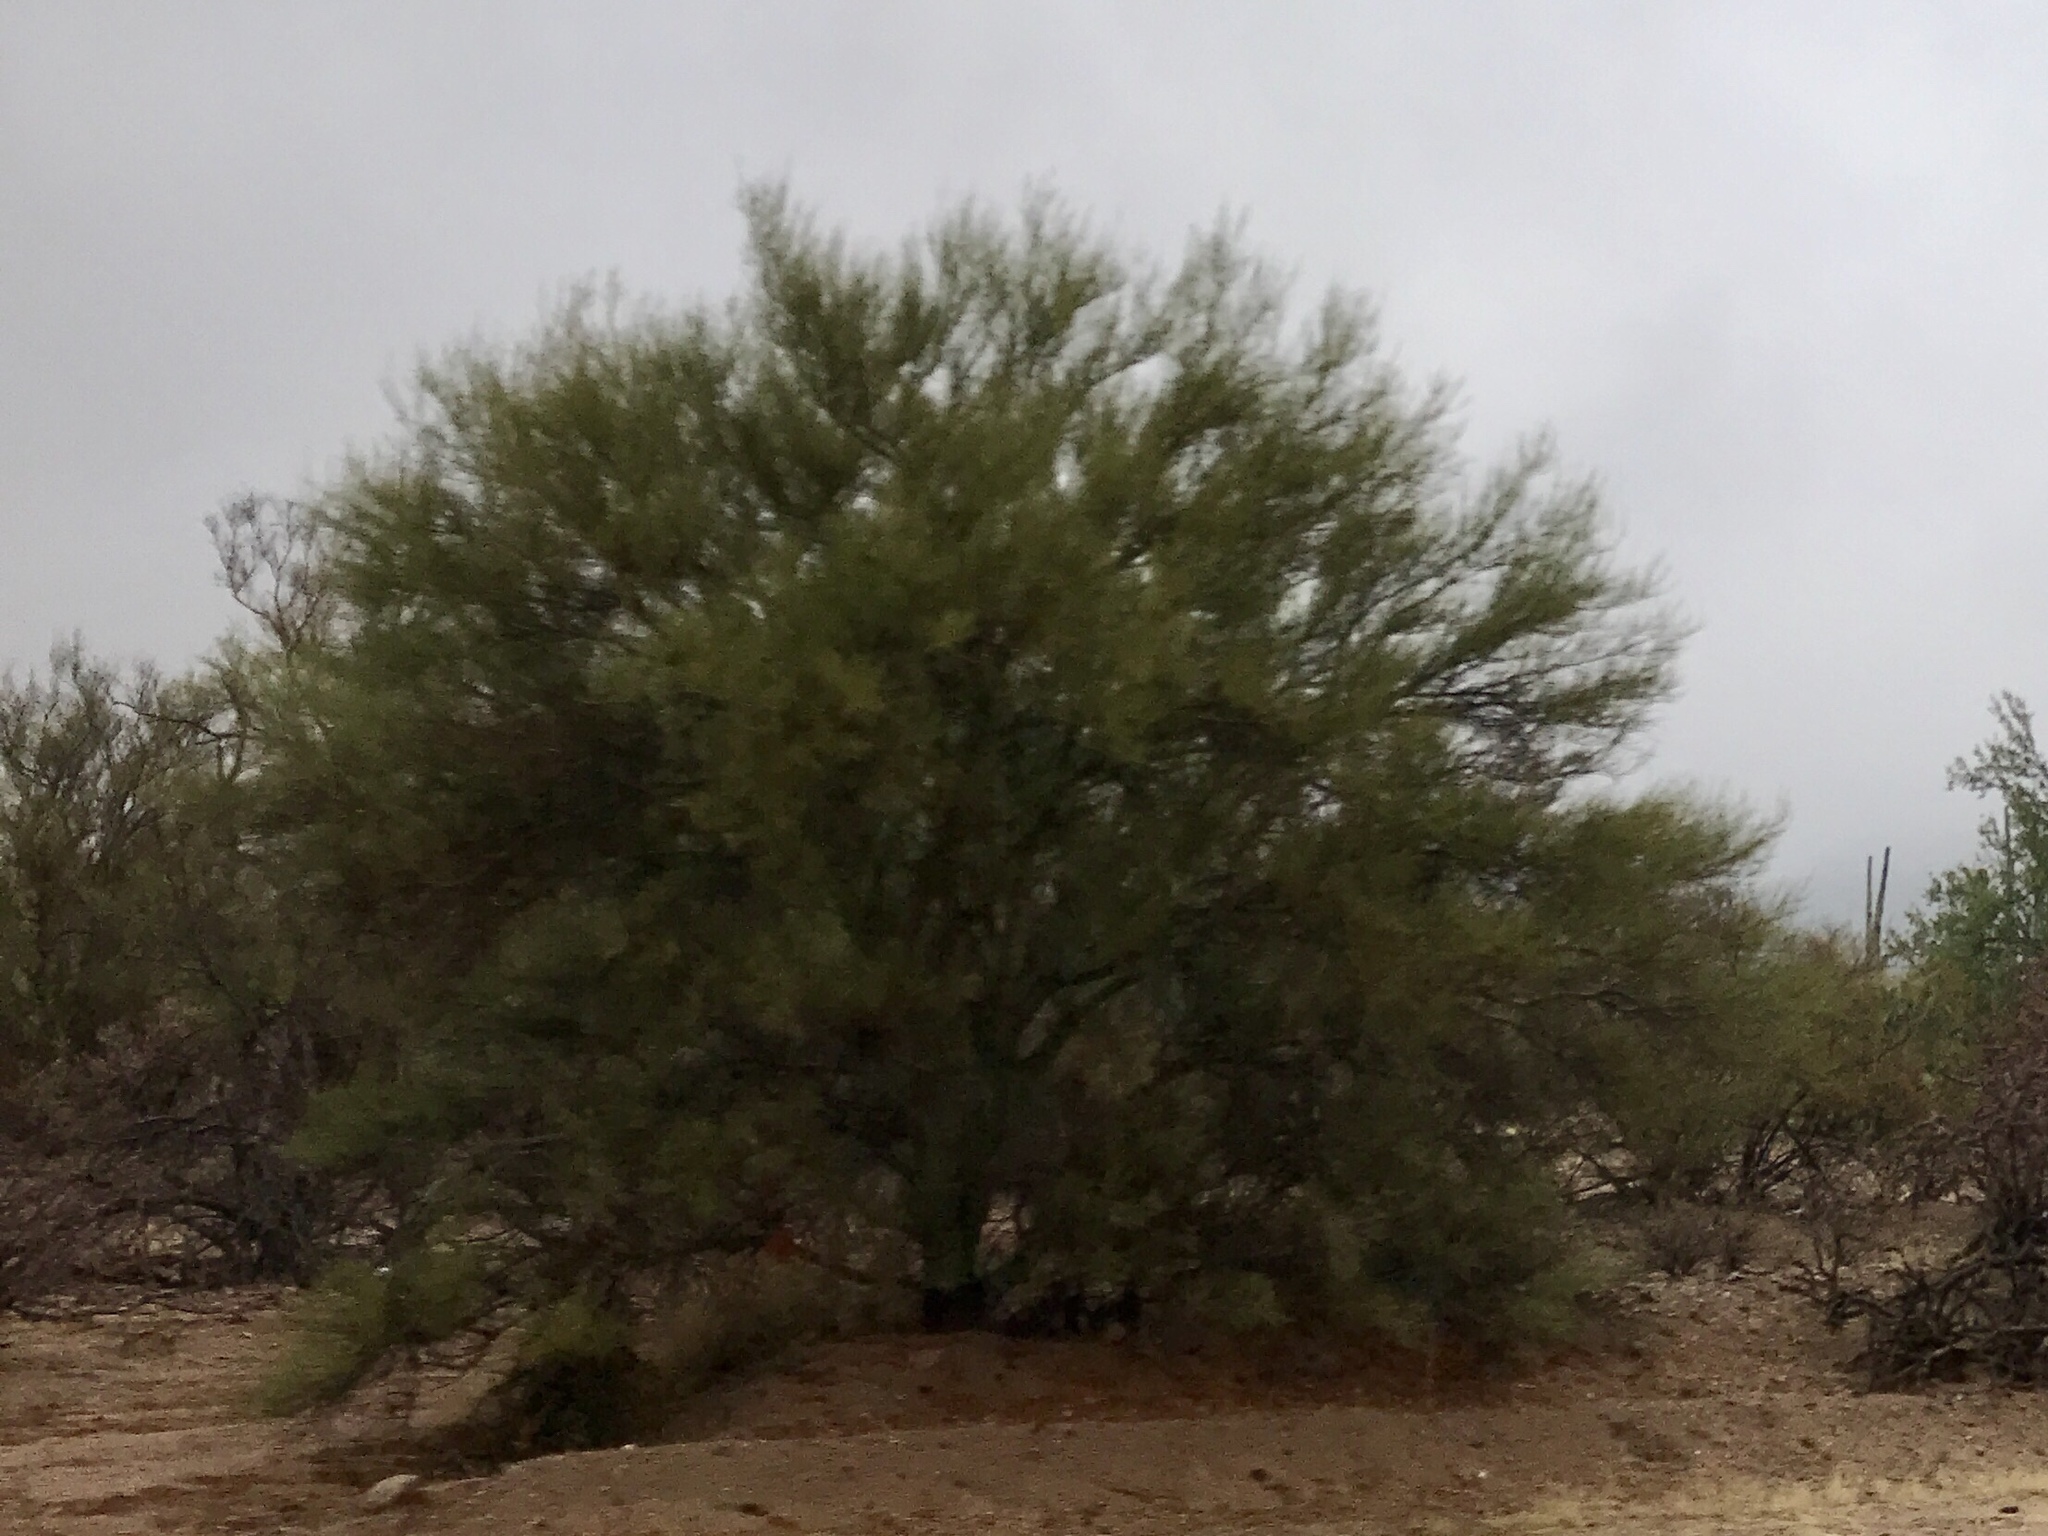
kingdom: Plantae
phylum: Tracheophyta
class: Magnoliopsida
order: Fabales
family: Fabaceae
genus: Parkinsonia
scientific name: Parkinsonia microphylla
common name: Yellow paloverde
